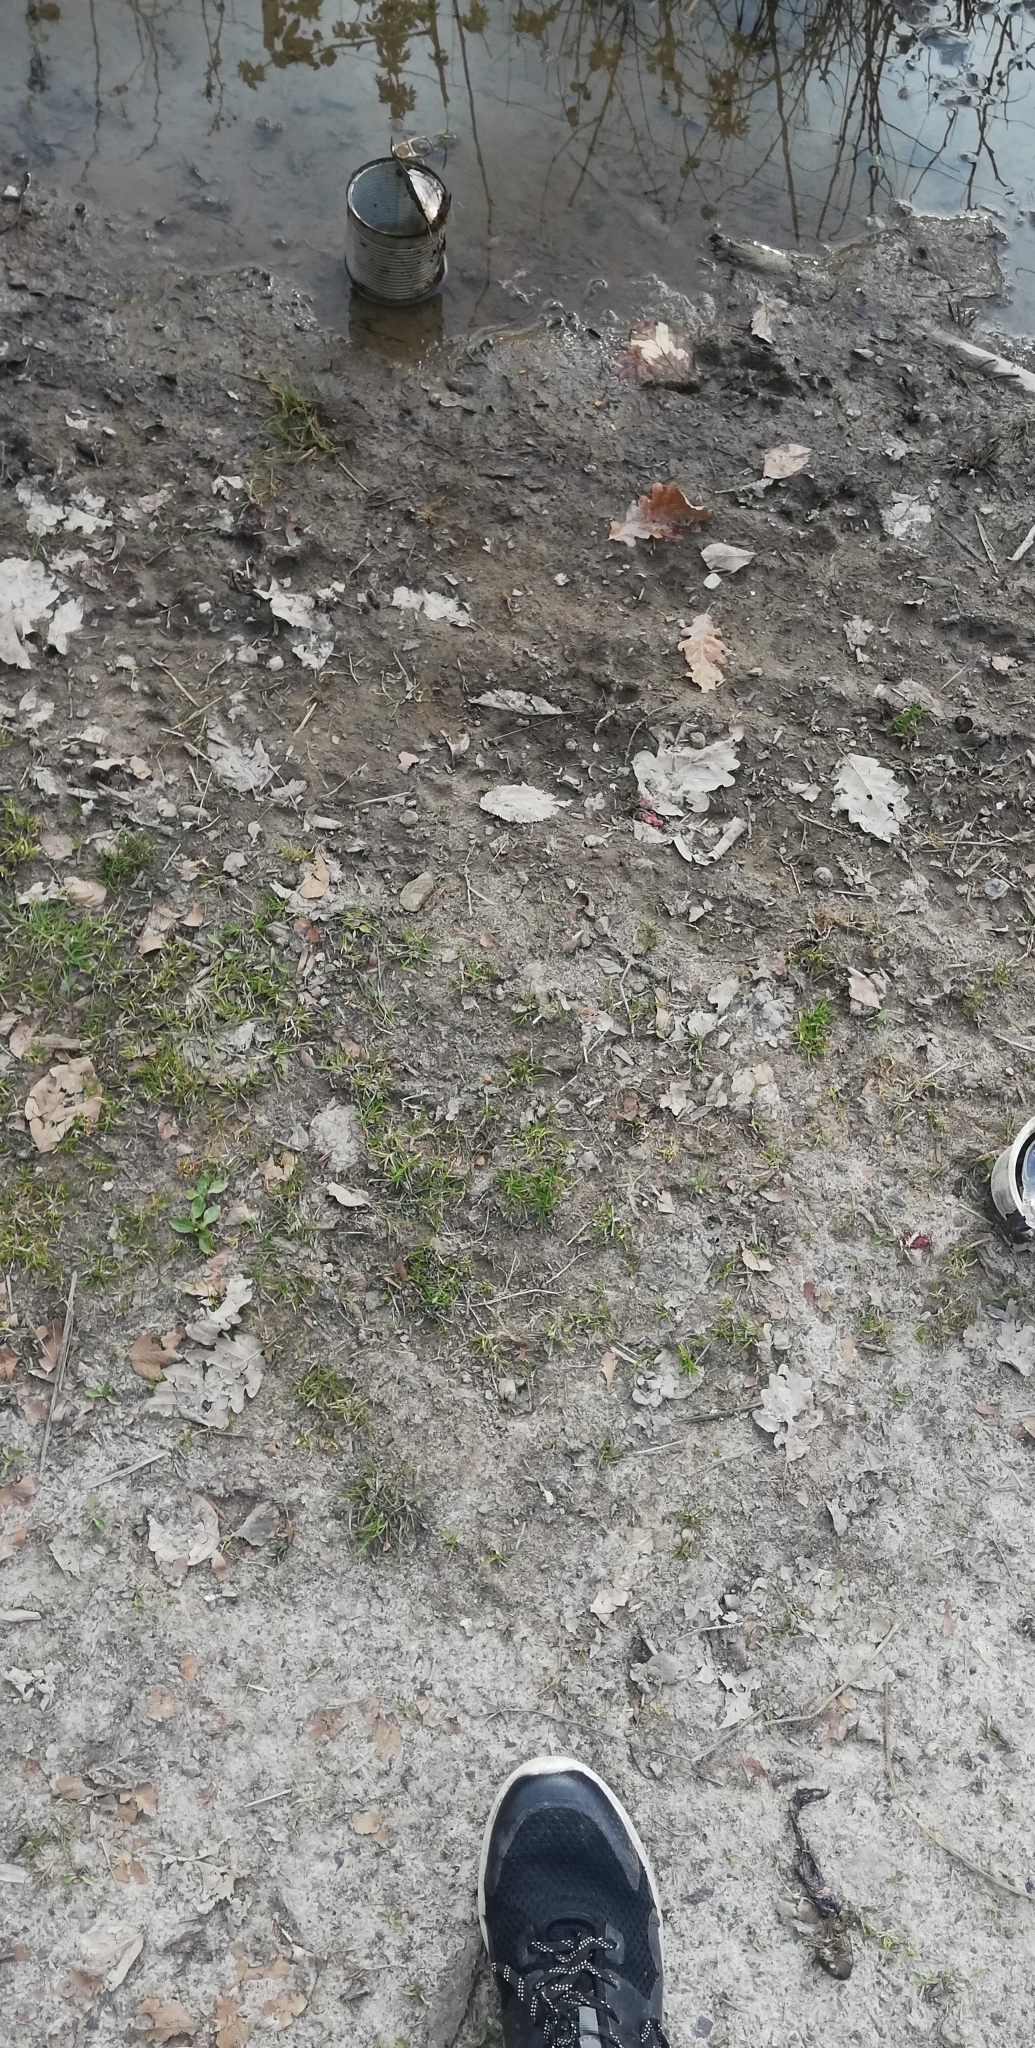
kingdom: Animalia
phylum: Chordata
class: Amphibia
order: Anura
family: Bufonidae
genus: Bufo
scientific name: Bufo bufo
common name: Common toad
